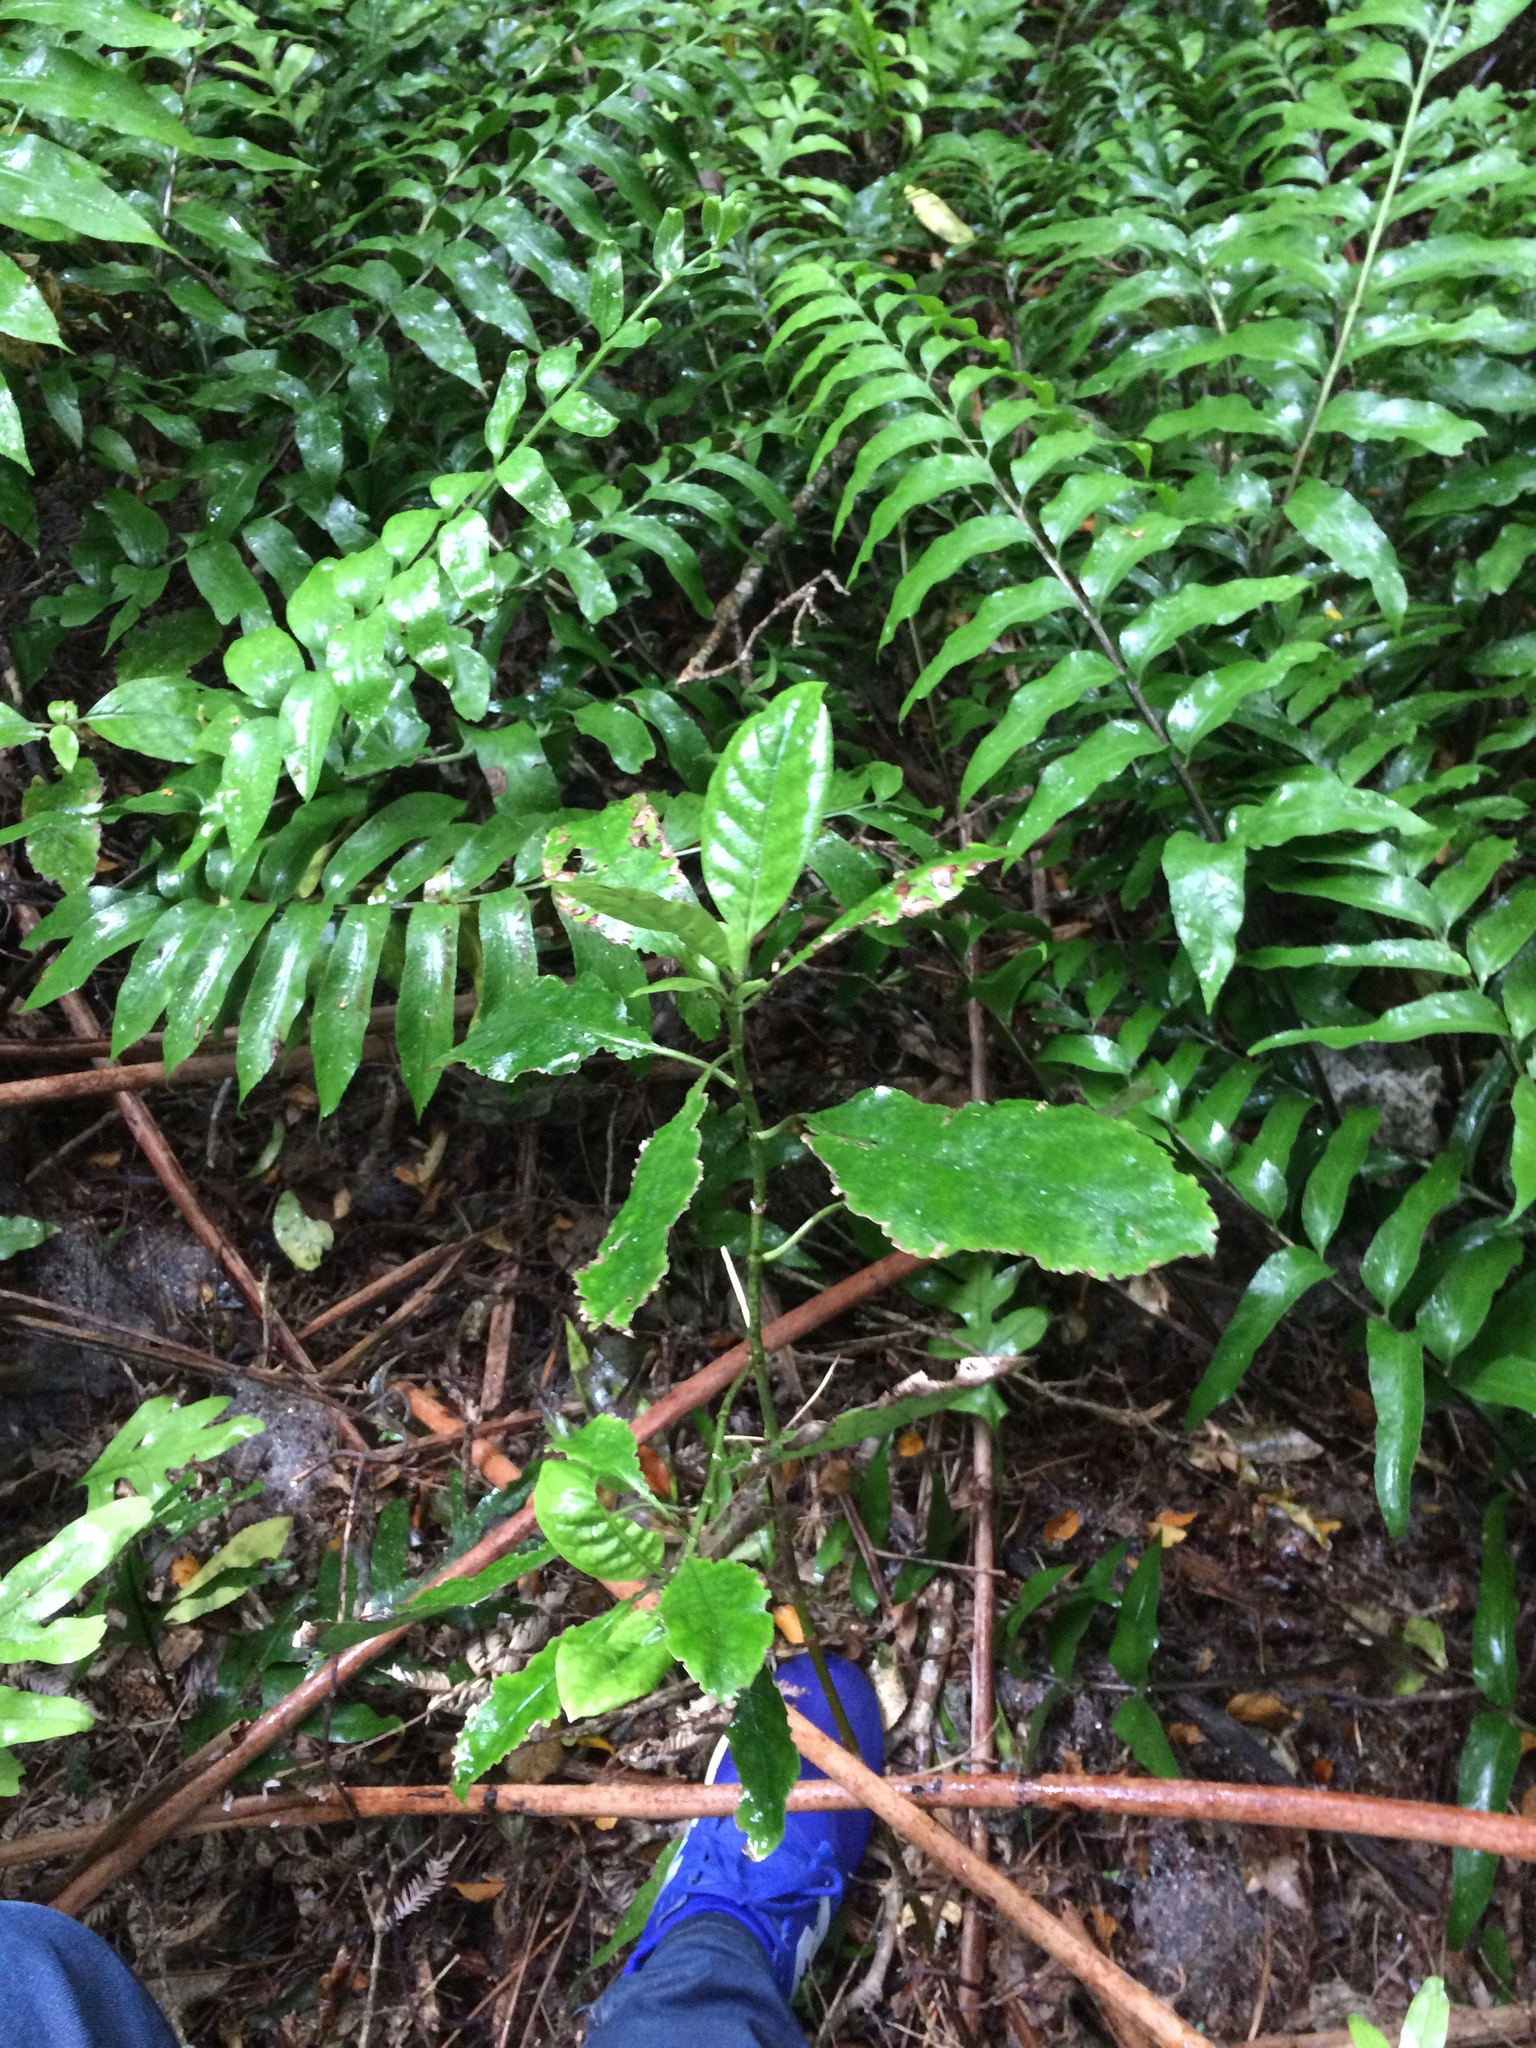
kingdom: Plantae
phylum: Tracheophyta
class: Magnoliopsida
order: Gentianales
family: Rubiaceae
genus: Coprosma
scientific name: Coprosma autumnalis
